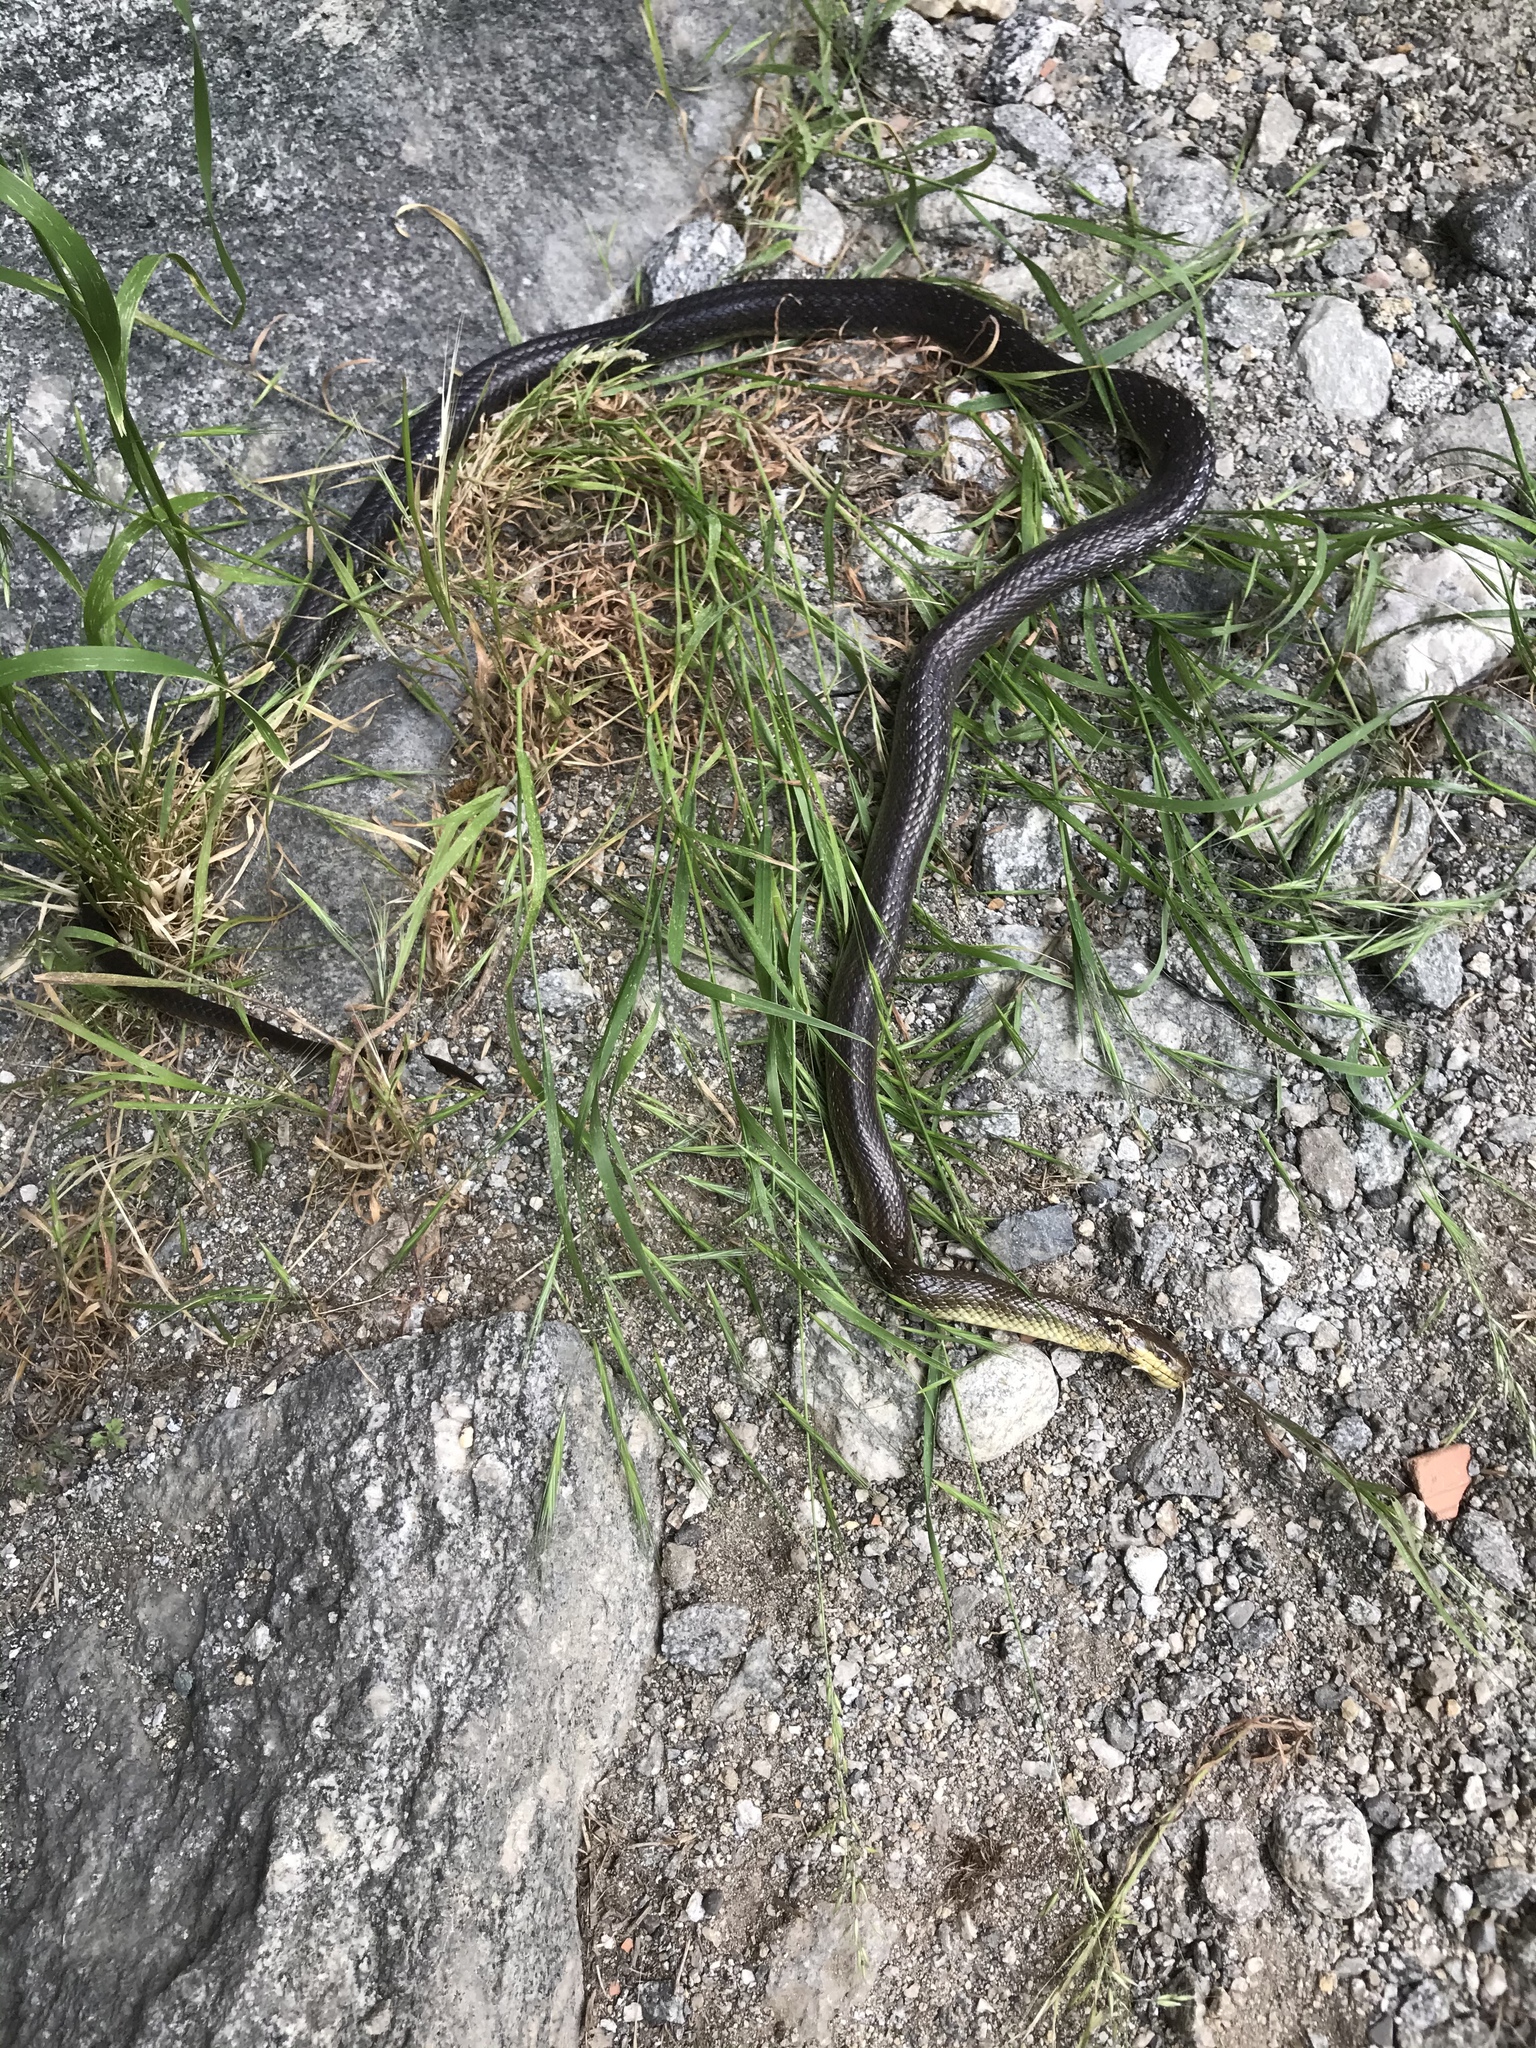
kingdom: Animalia
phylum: Chordata
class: Squamata
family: Colubridae
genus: Zamenis
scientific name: Zamenis longissimus
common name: Aesculapean snake
